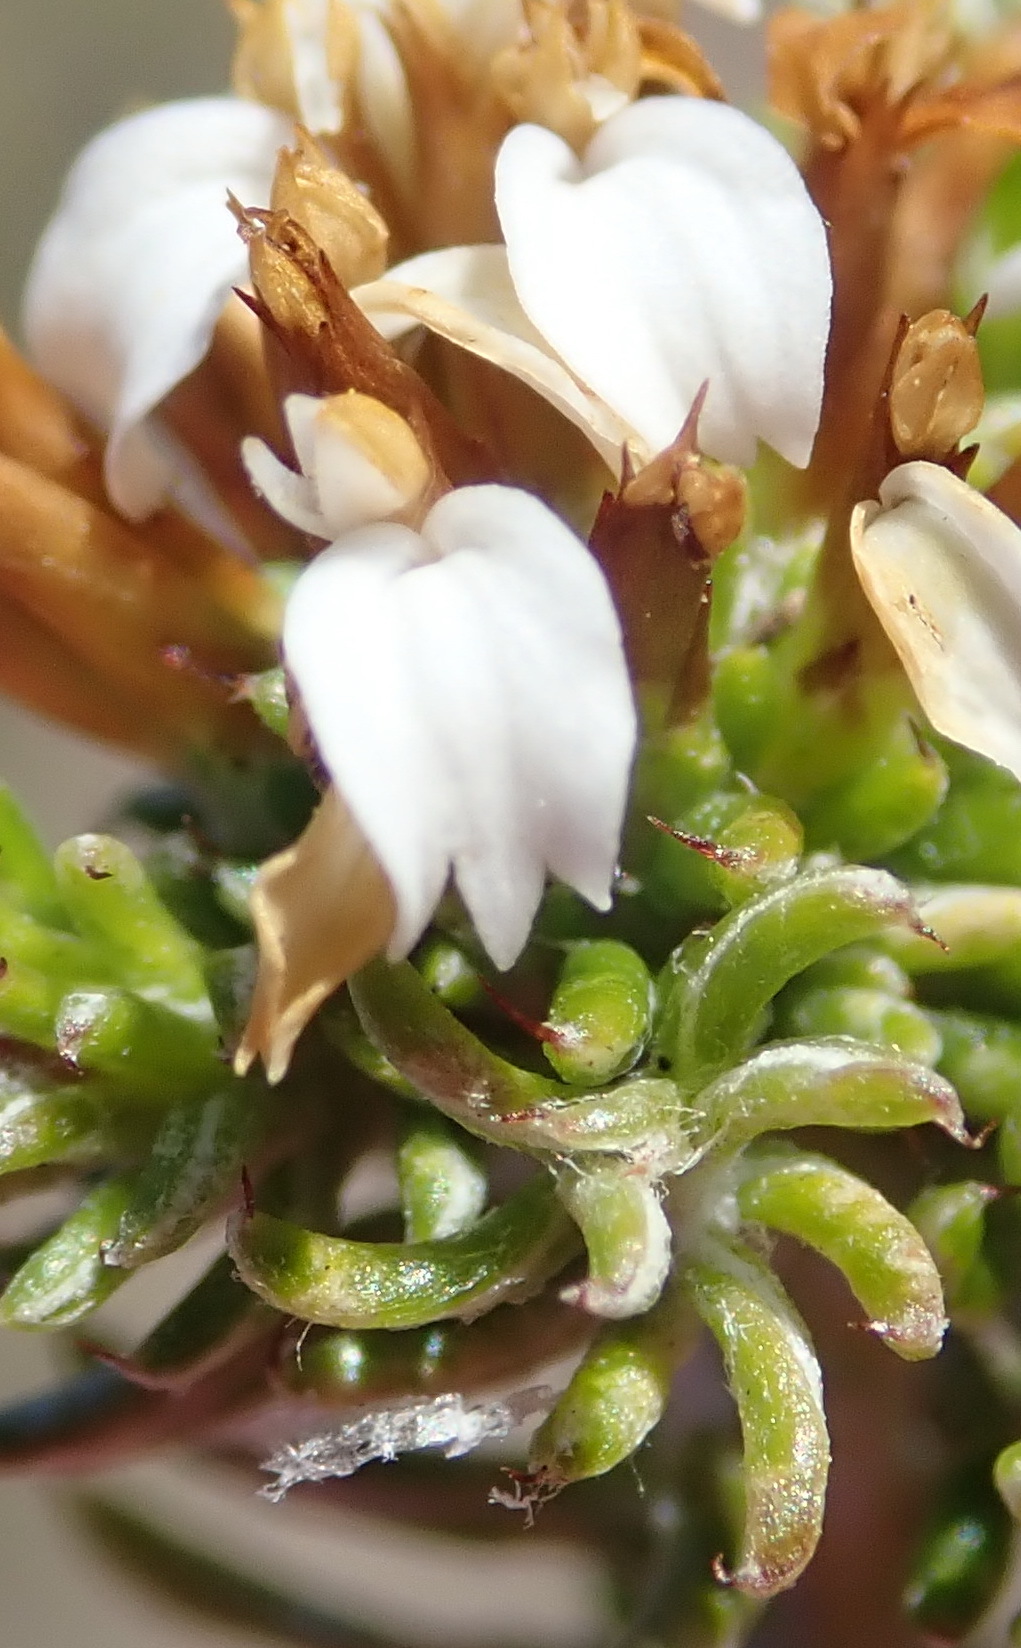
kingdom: Plantae
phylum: Tracheophyta
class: Magnoliopsida
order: Asterales
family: Asteraceae
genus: Disparago
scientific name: Disparago anomala
